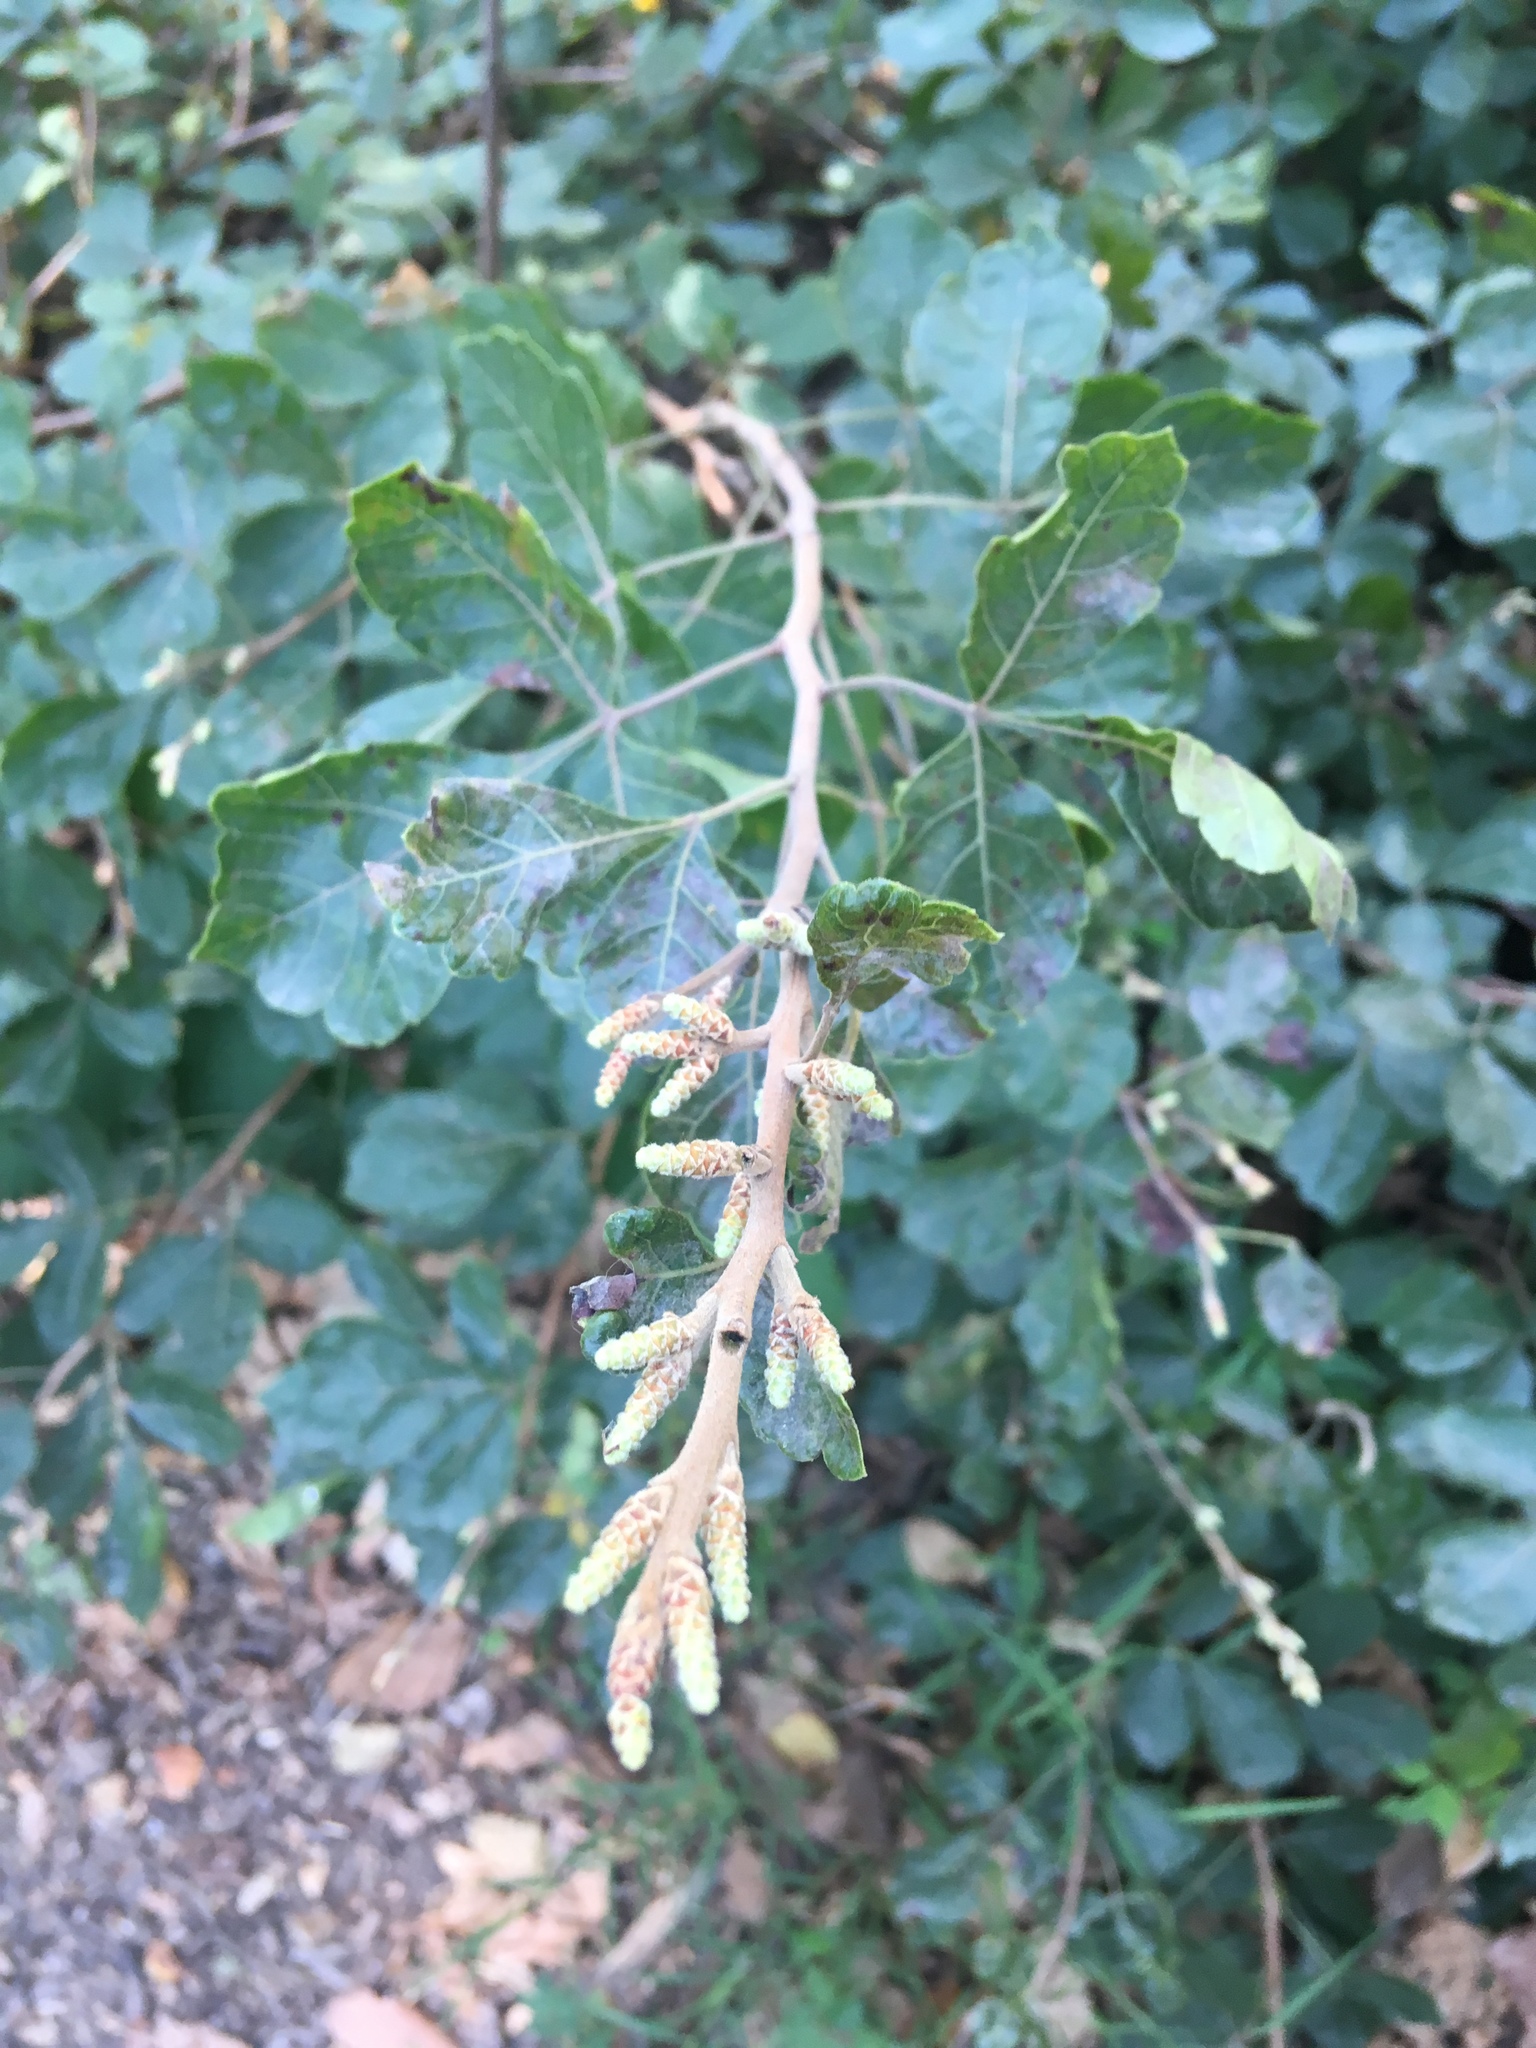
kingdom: Plantae
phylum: Tracheophyta
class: Magnoliopsida
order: Sapindales
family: Anacardiaceae
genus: Rhus
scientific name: Rhus aromatica
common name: Aromatic sumac
